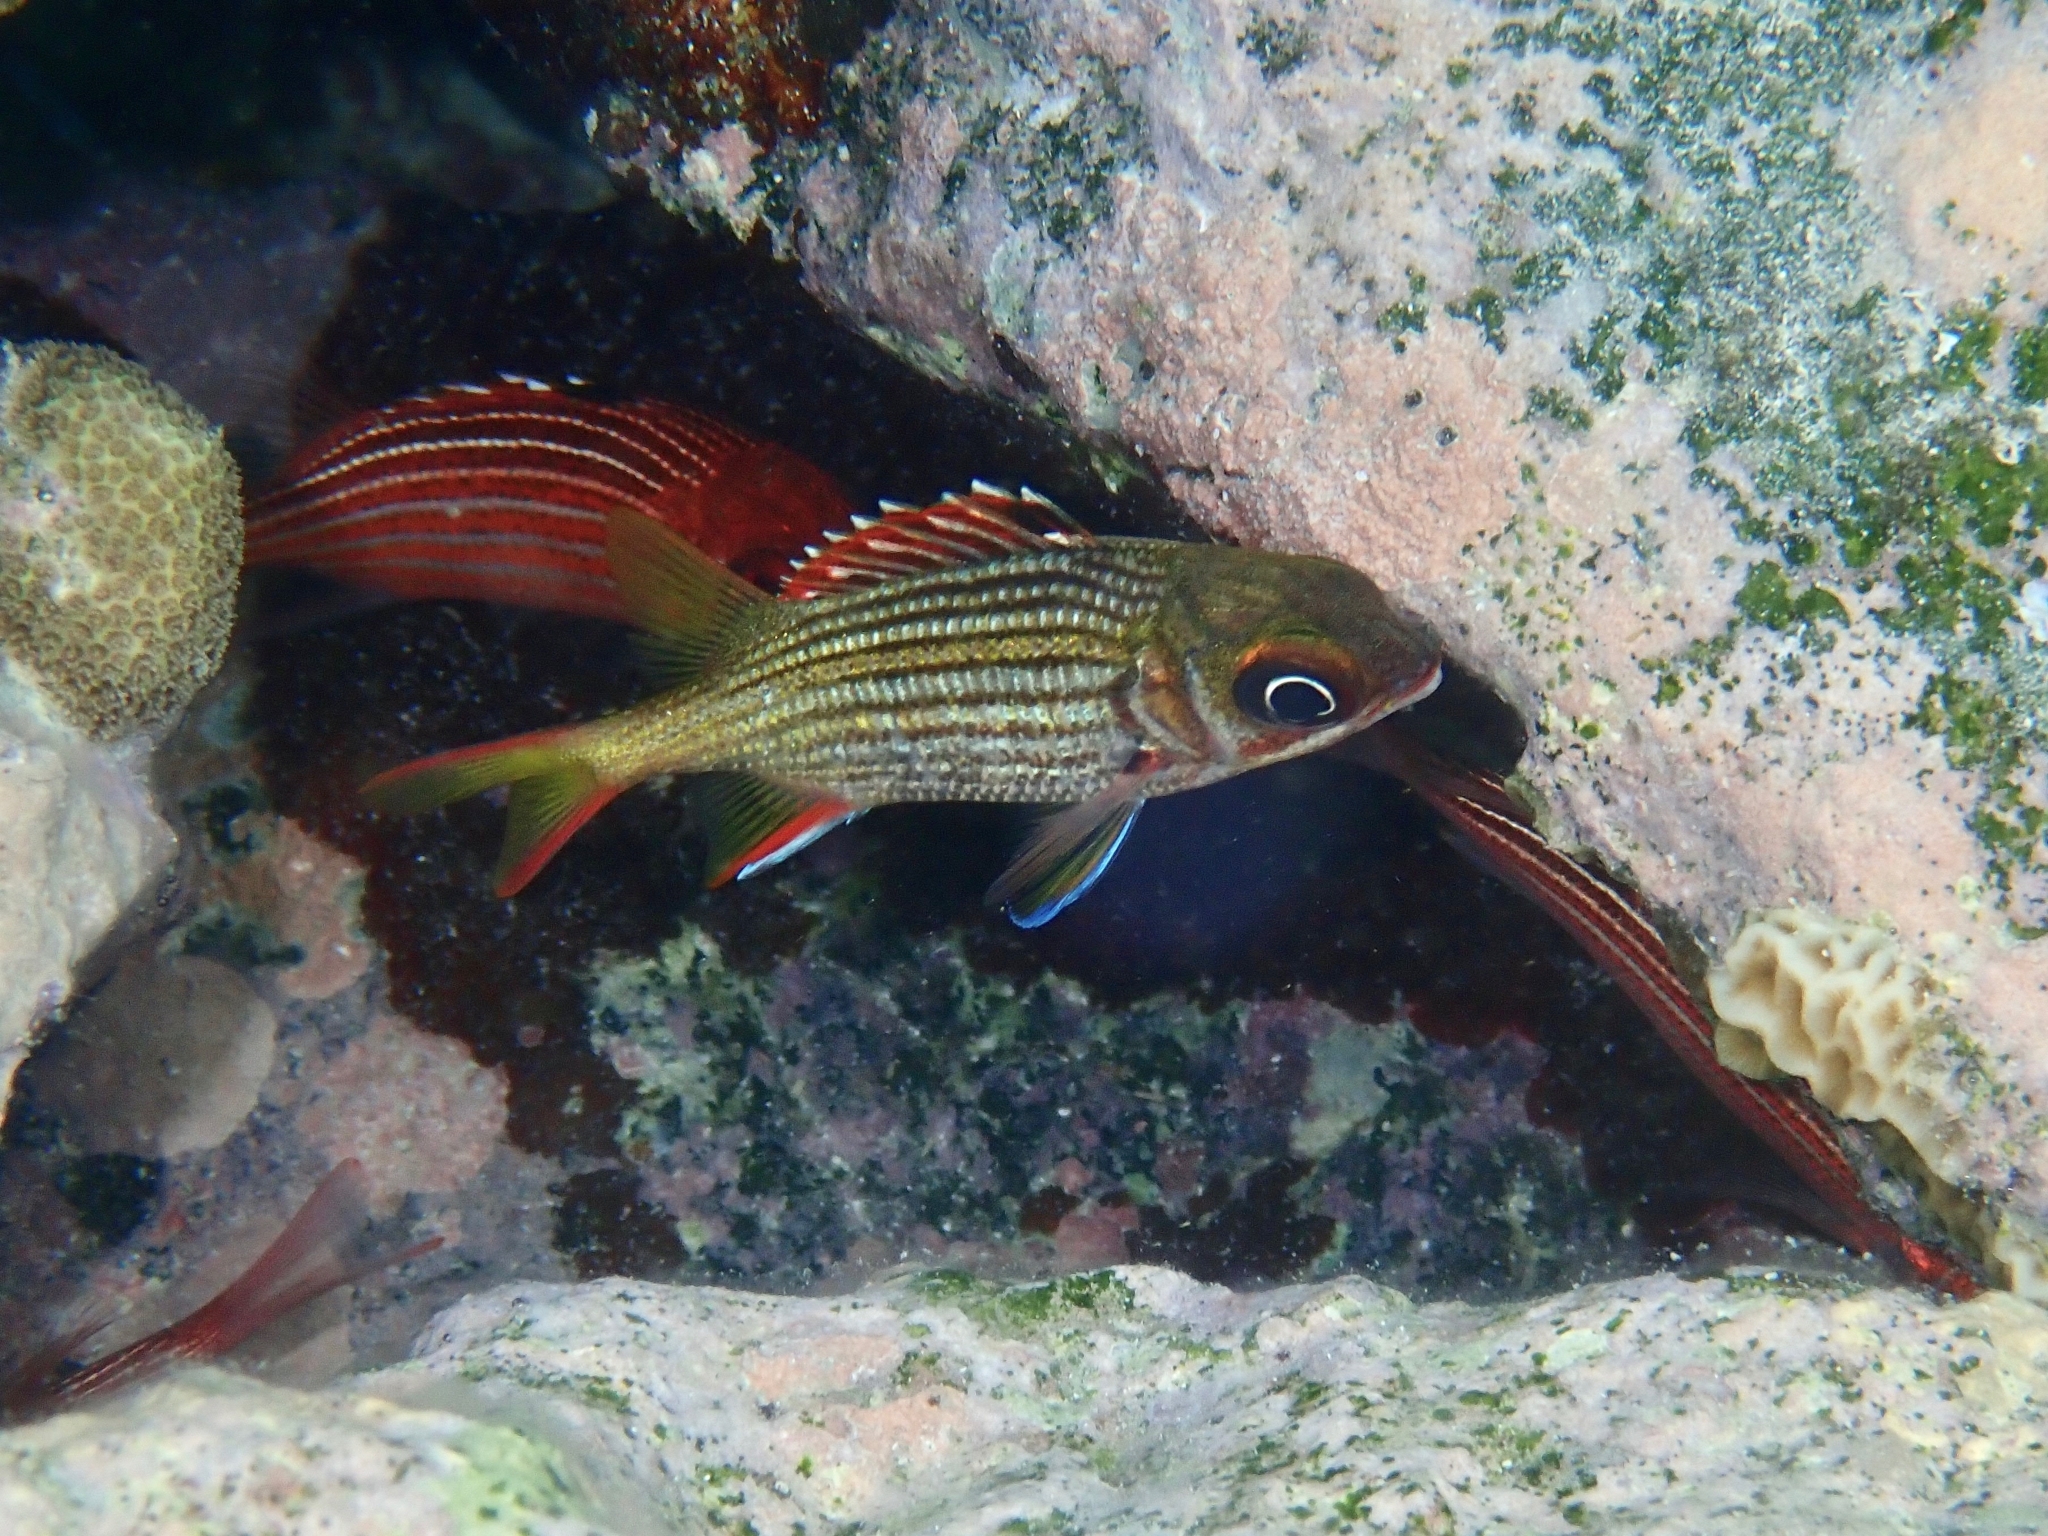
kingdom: Animalia
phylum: Chordata
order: Beryciformes
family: Holocentridae
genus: Neoniphon
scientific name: Neoniphon vexillarium
